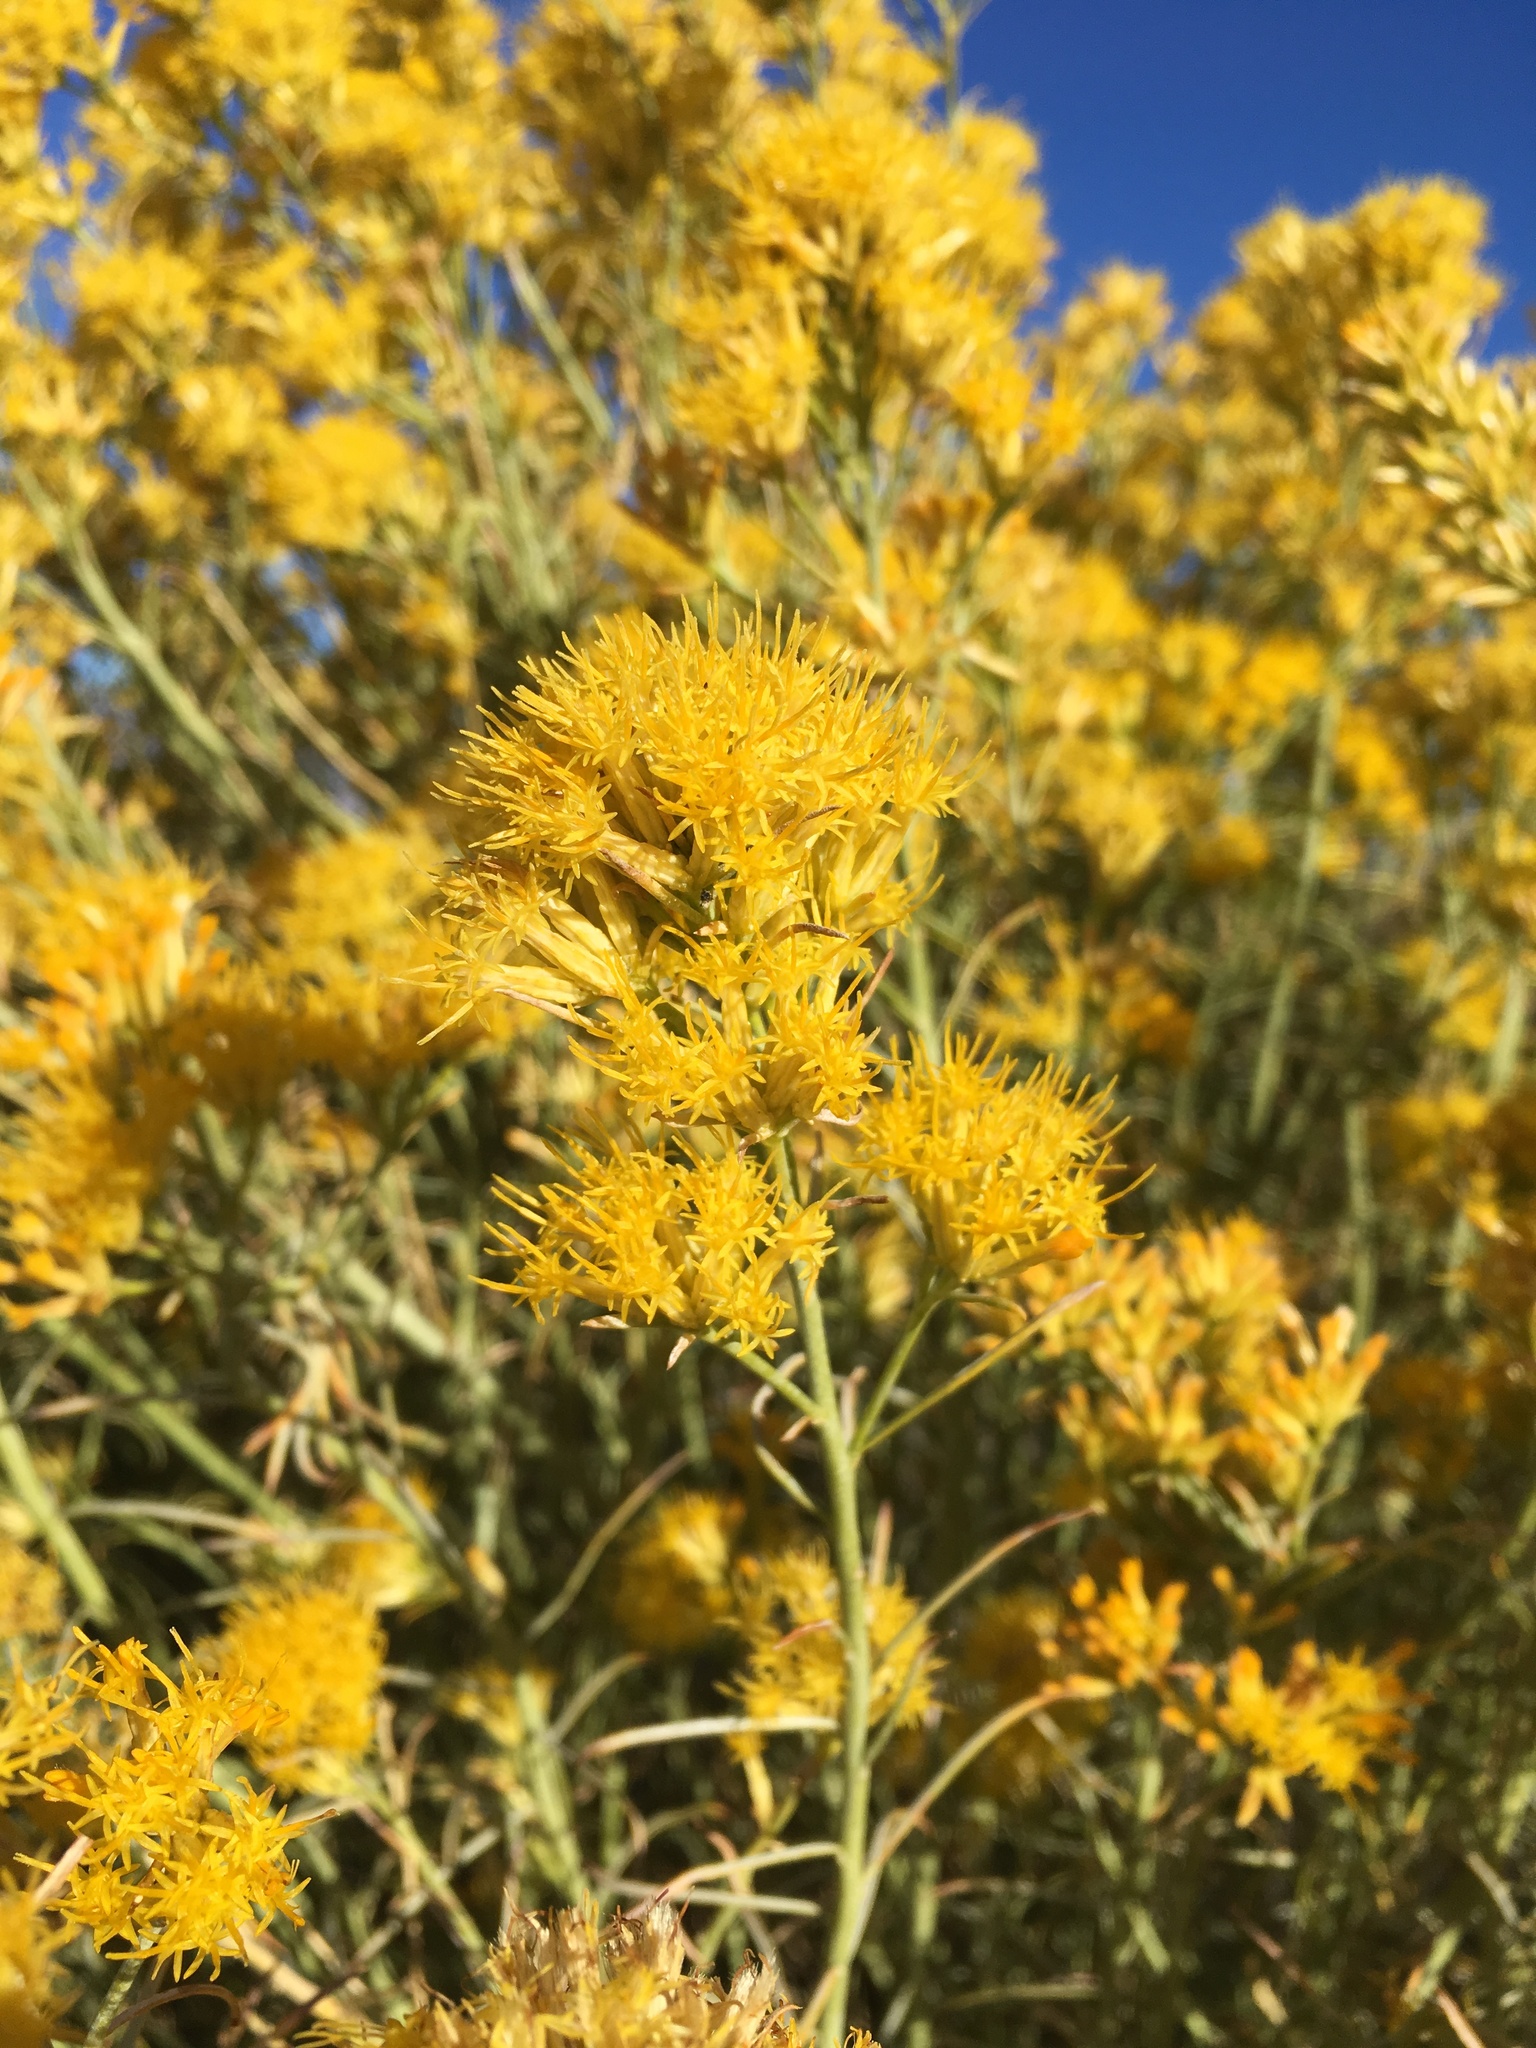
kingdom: Plantae
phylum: Tracheophyta
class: Magnoliopsida
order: Asterales
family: Asteraceae
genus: Ericameria
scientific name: Ericameria nauseosa
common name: Rubber rabbitbrush
